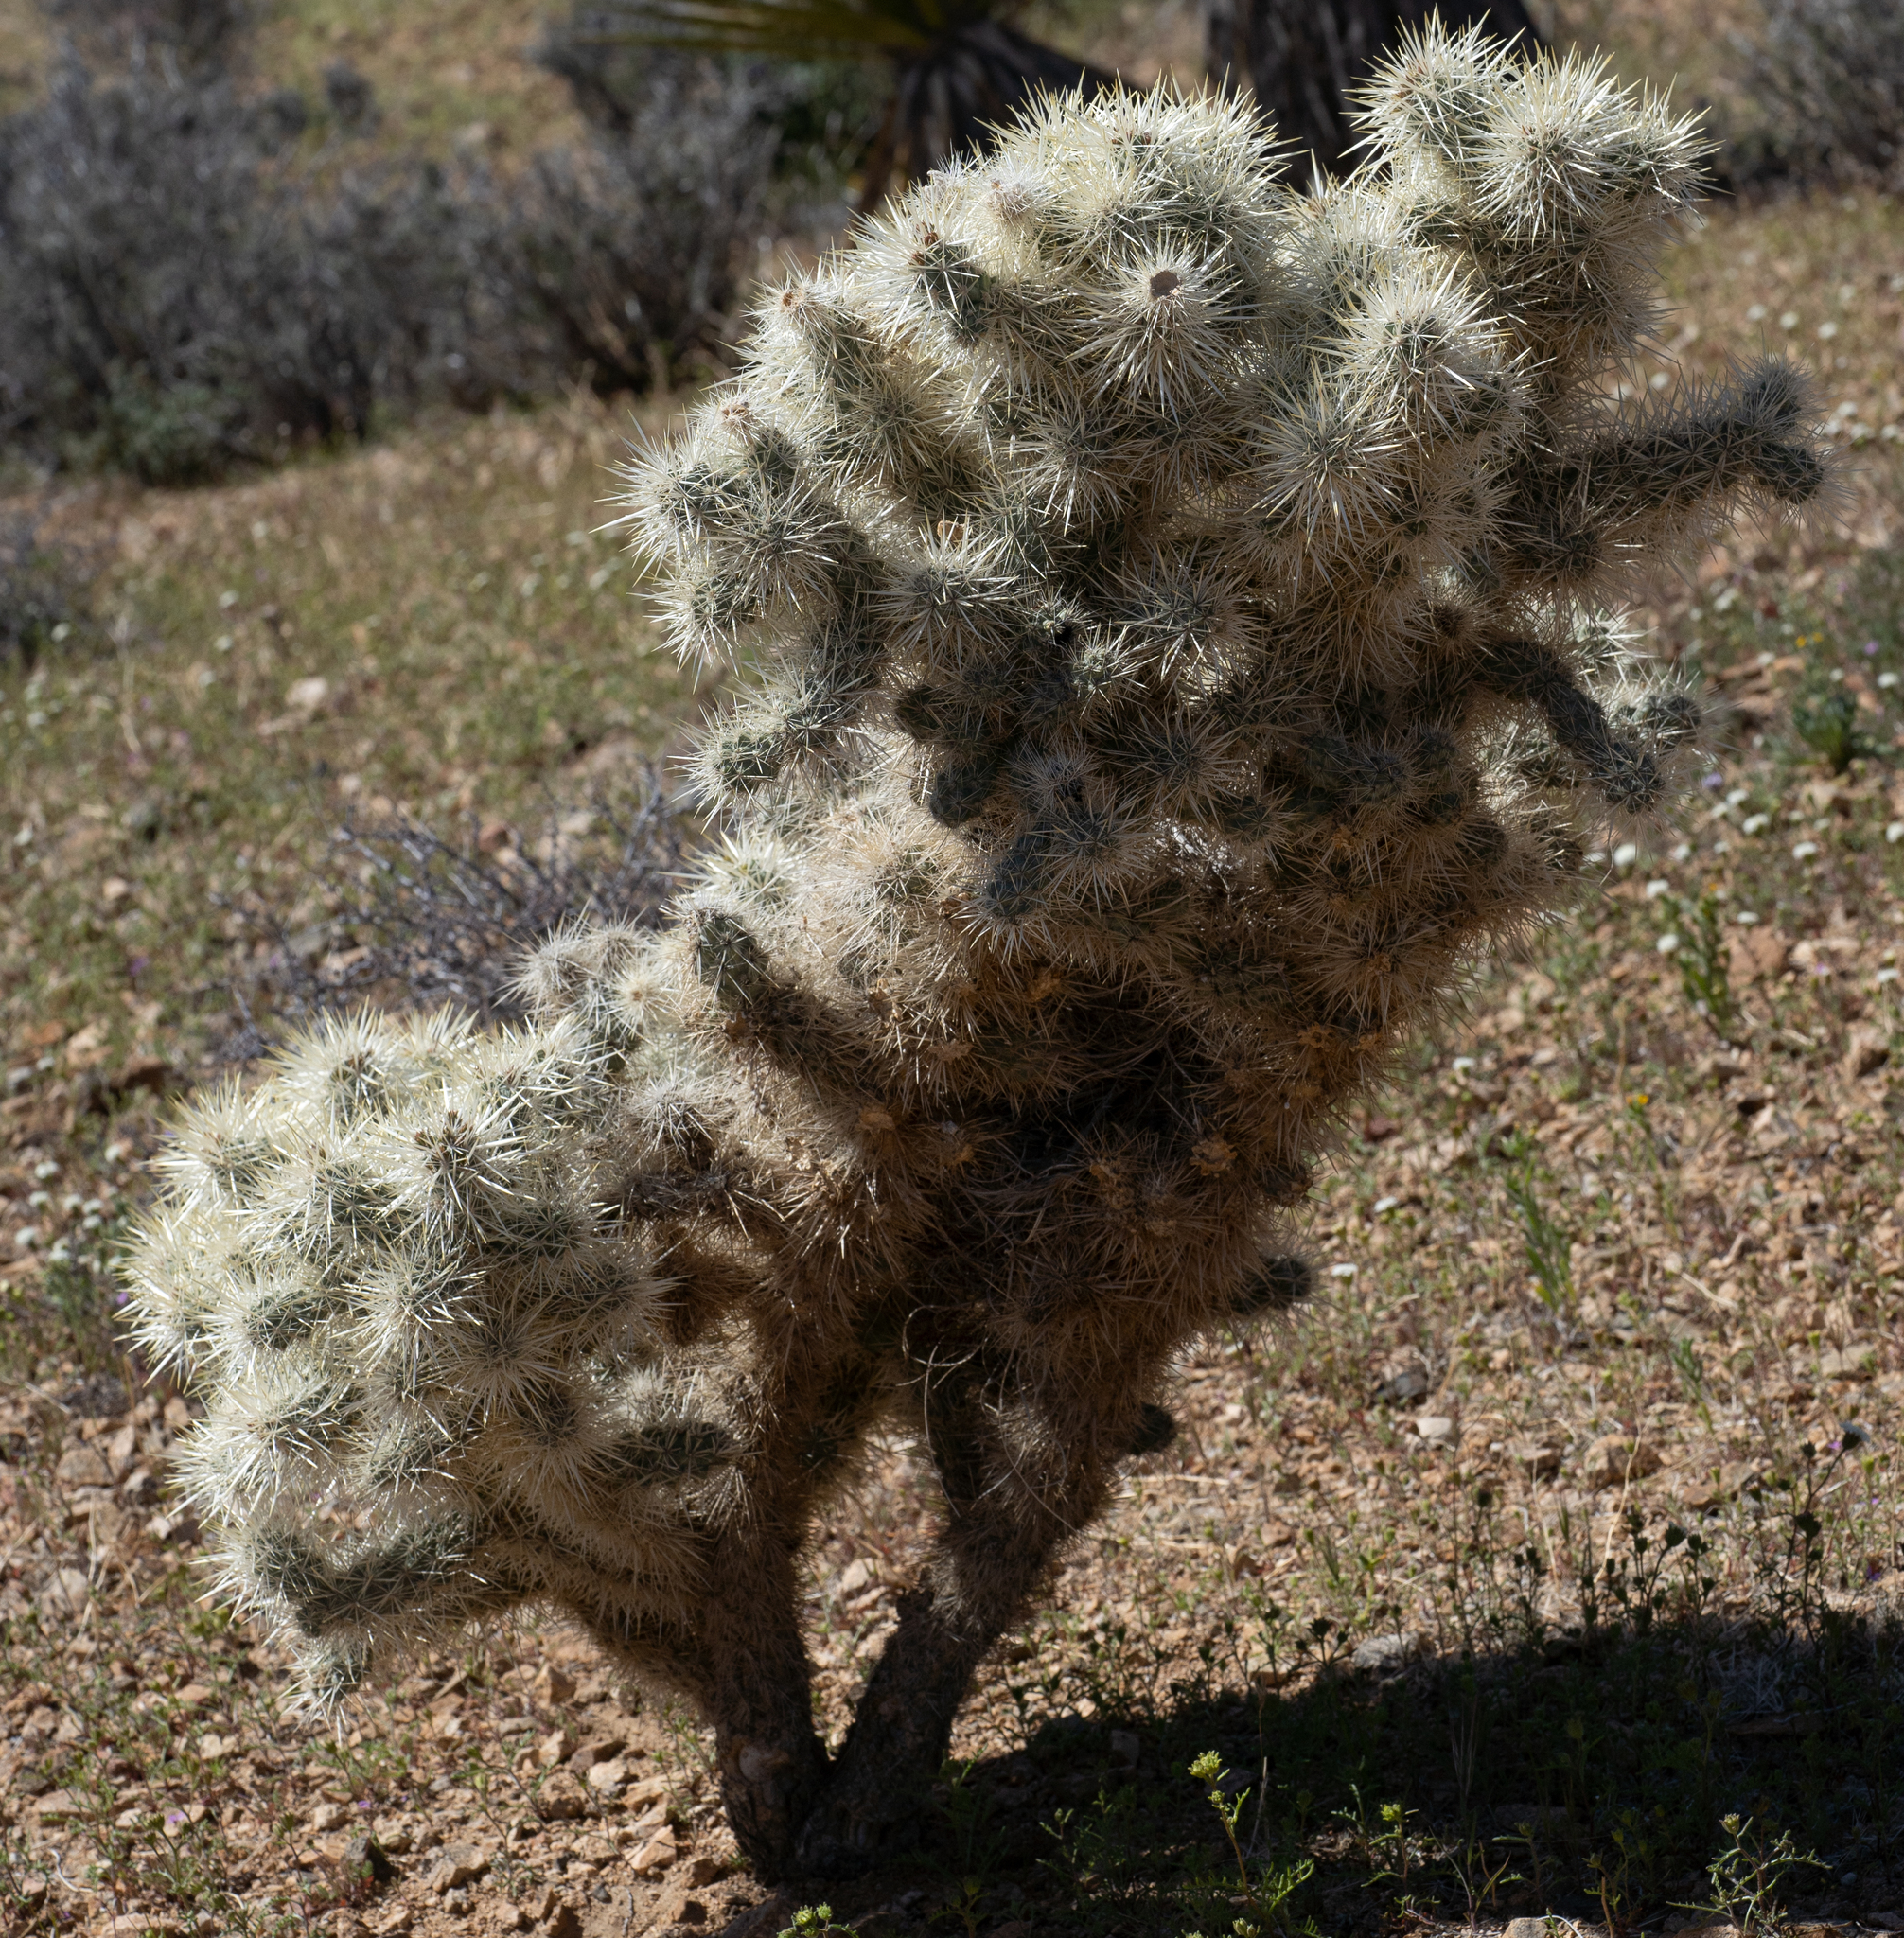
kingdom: Plantae
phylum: Tracheophyta
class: Magnoliopsida
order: Caryophyllales
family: Cactaceae
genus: Cylindropuntia
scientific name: Cylindropuntia echinocarpa
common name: Ground cholla
